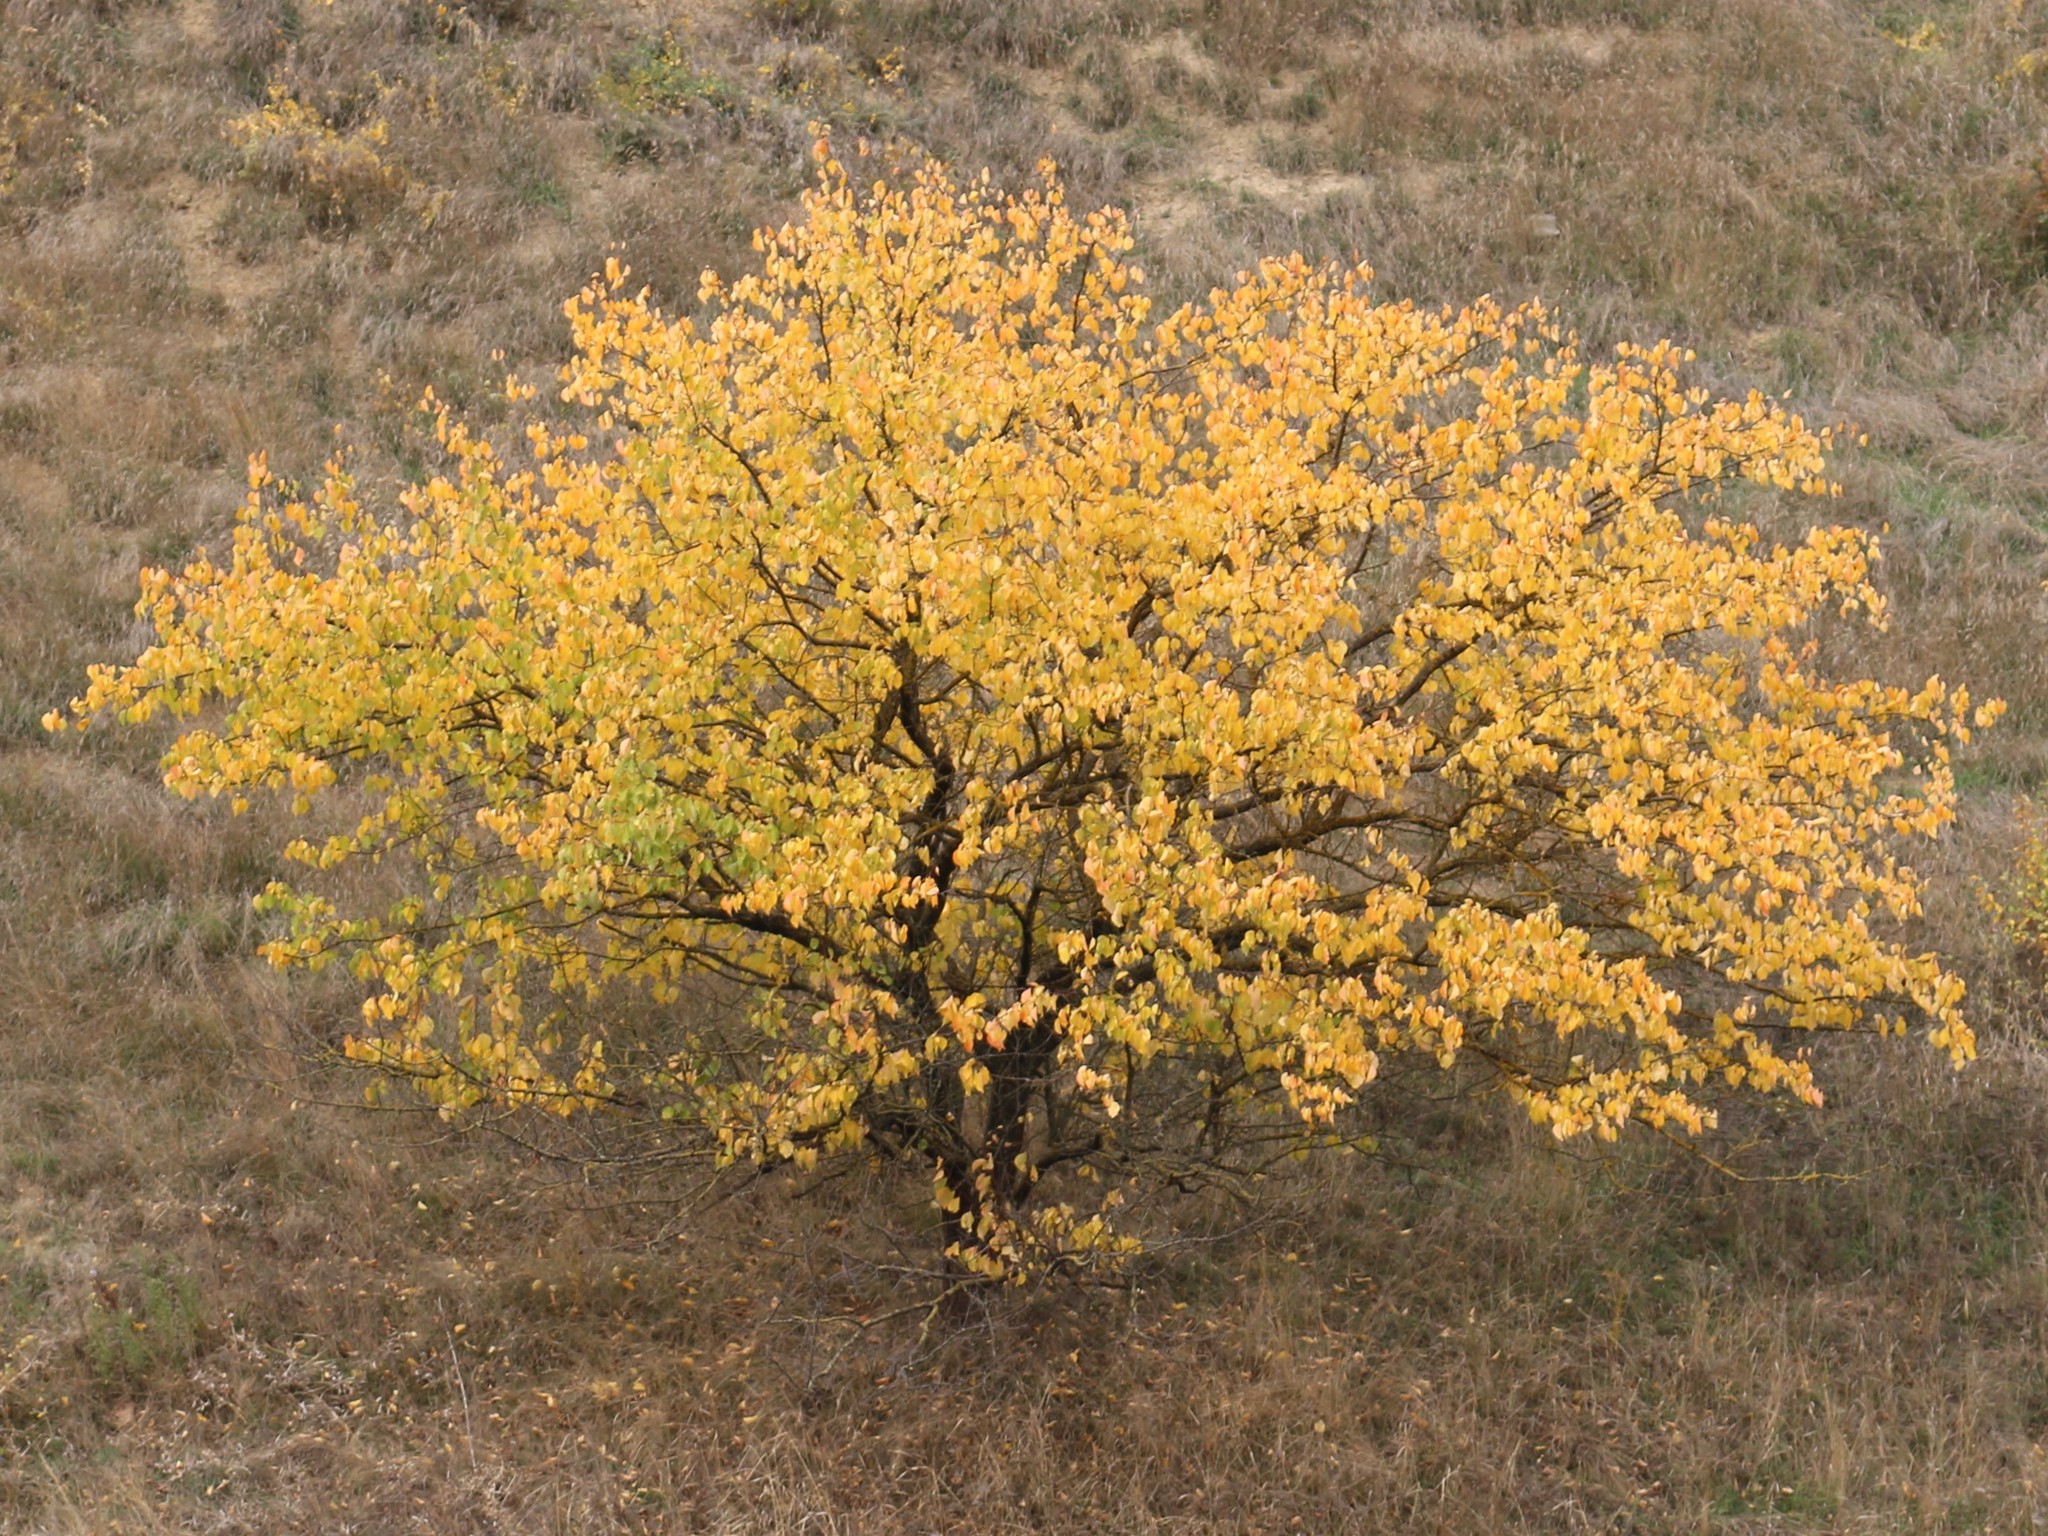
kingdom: Plantae
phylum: Tracheophyta
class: Magnoliopsida
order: Rosales
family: Rosaceae
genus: Prunus
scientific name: Prunus armeniaca
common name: Apricot
